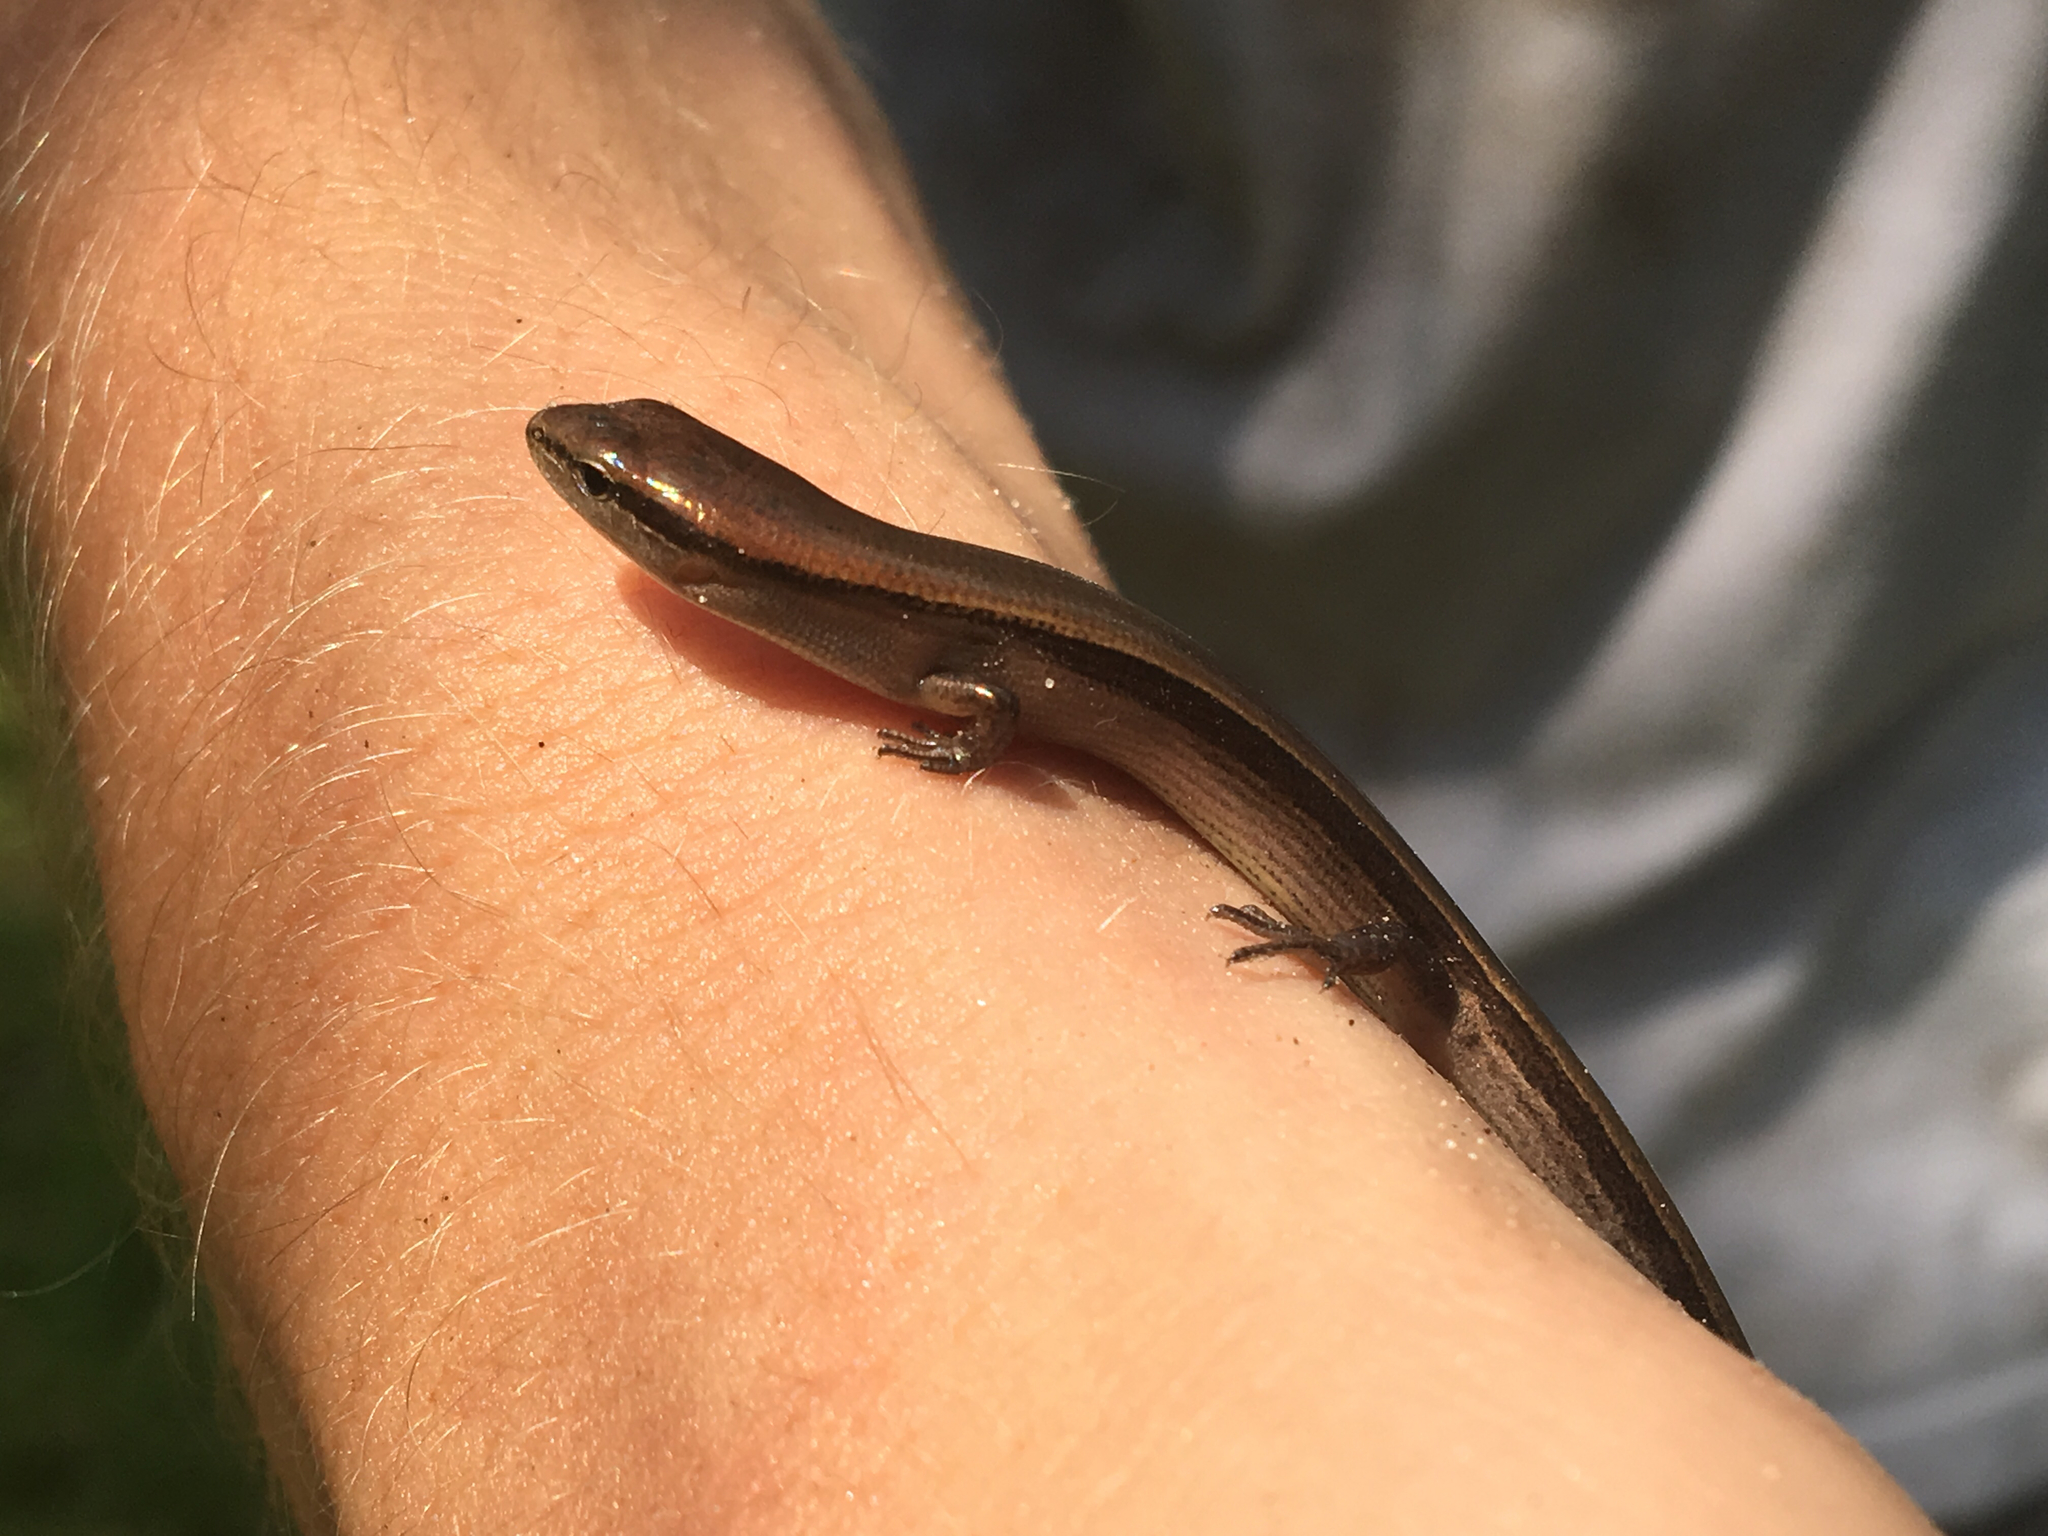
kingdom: Animalia
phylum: Chordata
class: Squamata
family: Scincidae
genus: Scincella
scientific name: Scincella lateralis
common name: Ground skink
